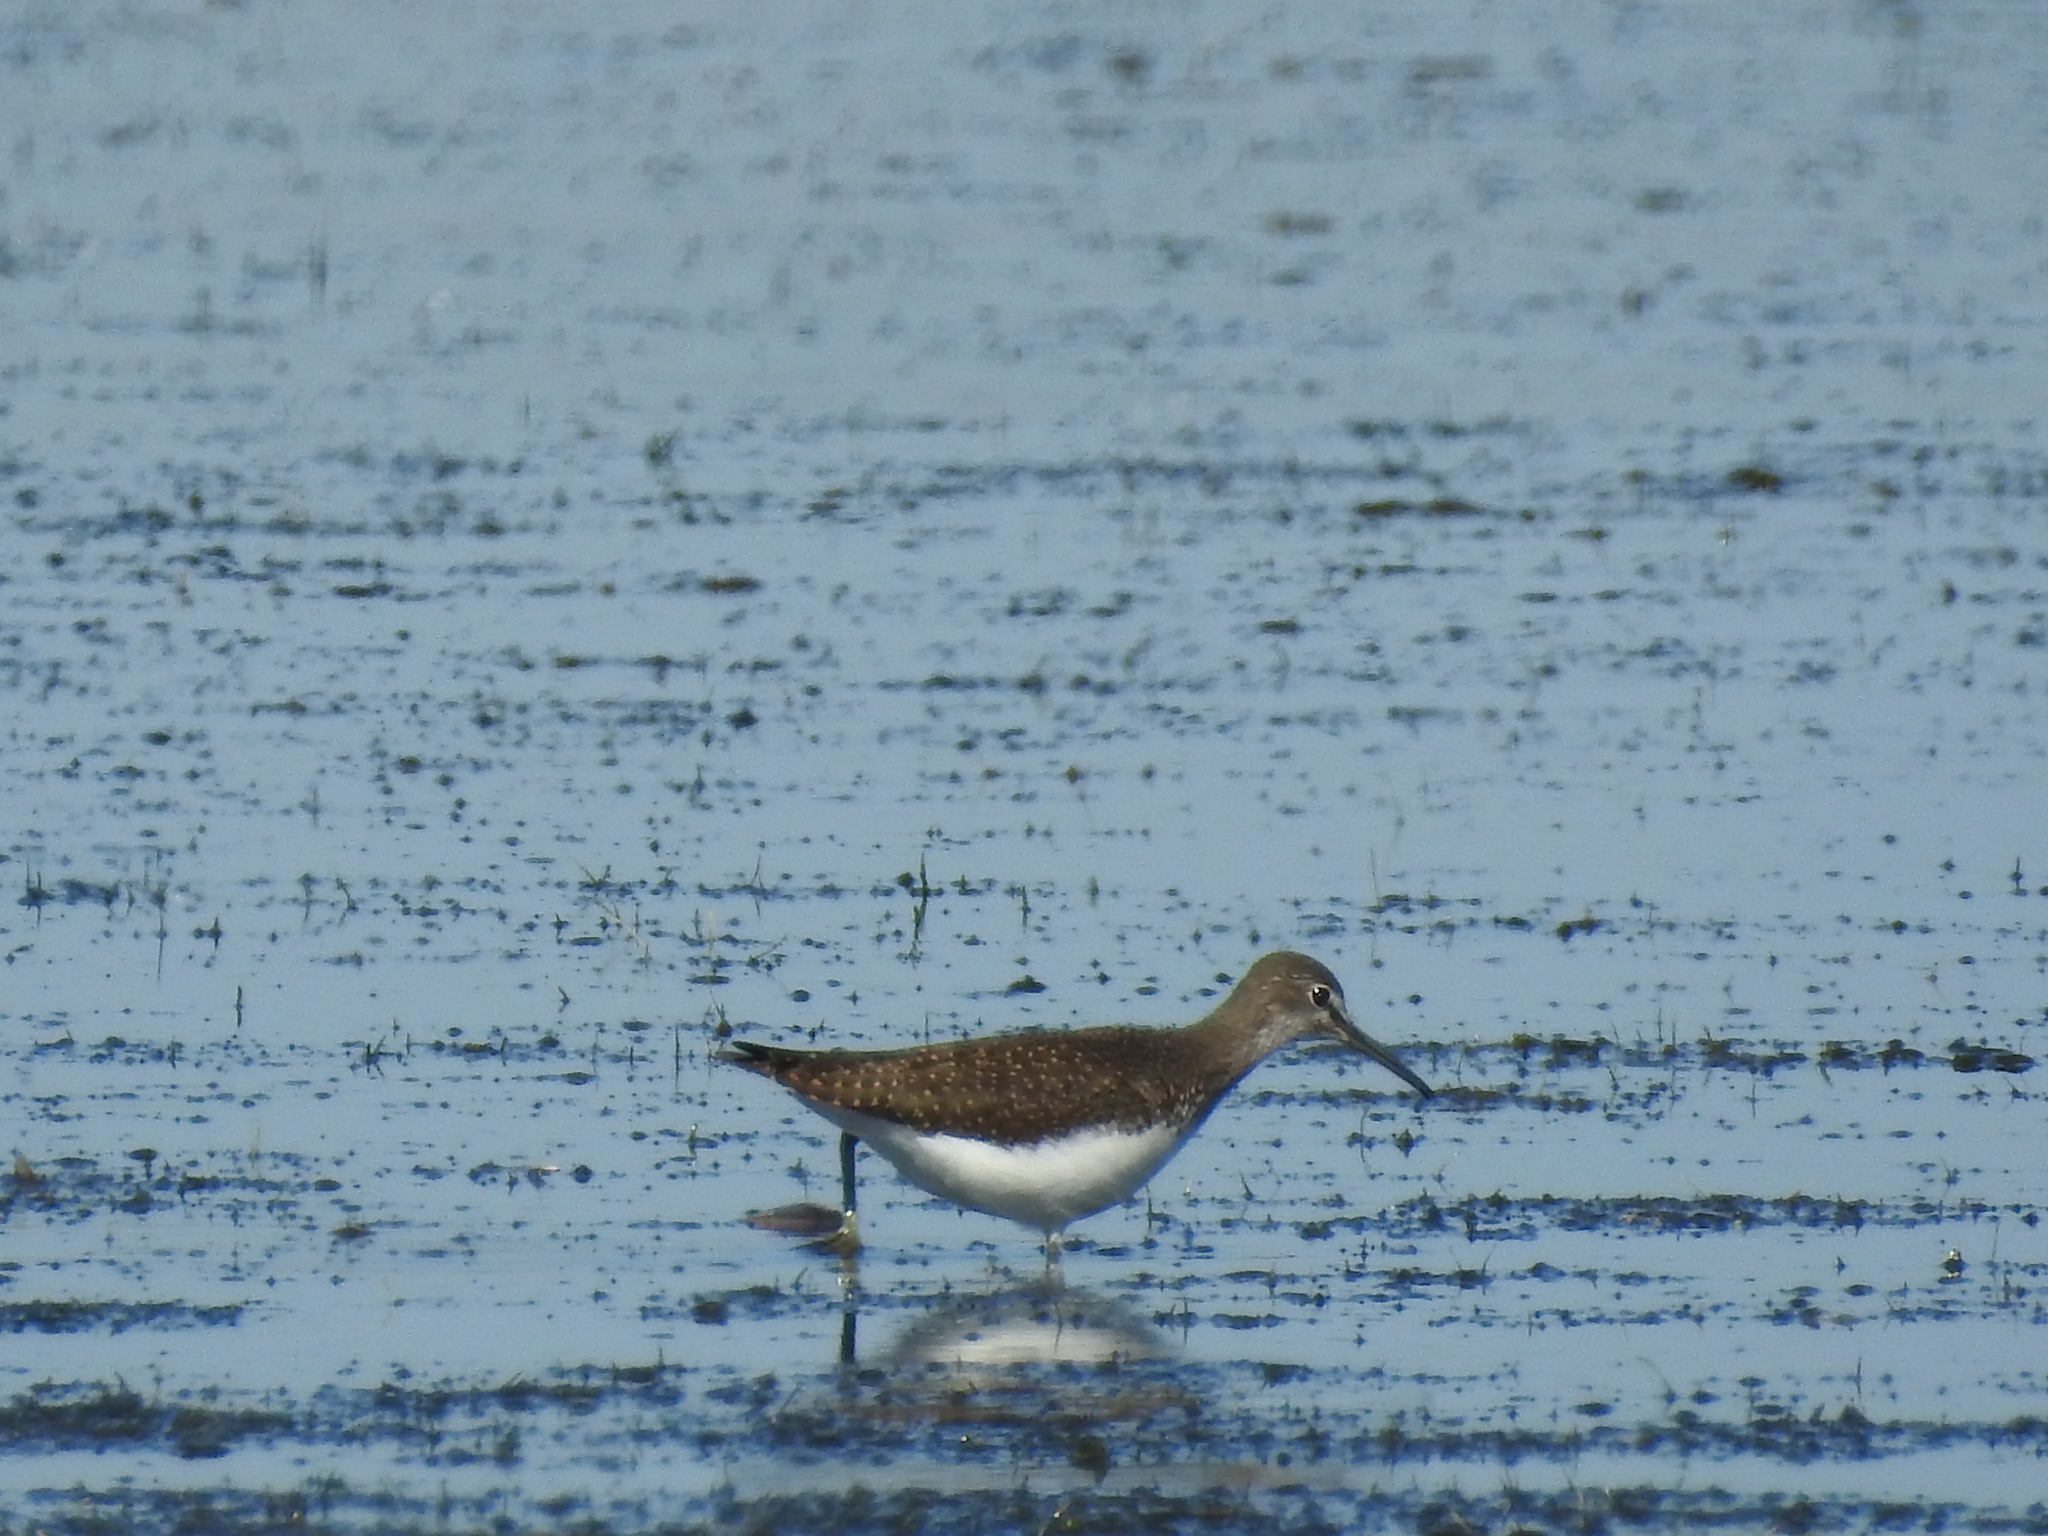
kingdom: Animalia
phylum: Chordata
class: Aves
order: Charadriiformes
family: Scolopacidae
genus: Tringa
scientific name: Tringa ochropus
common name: Green sandpiper
